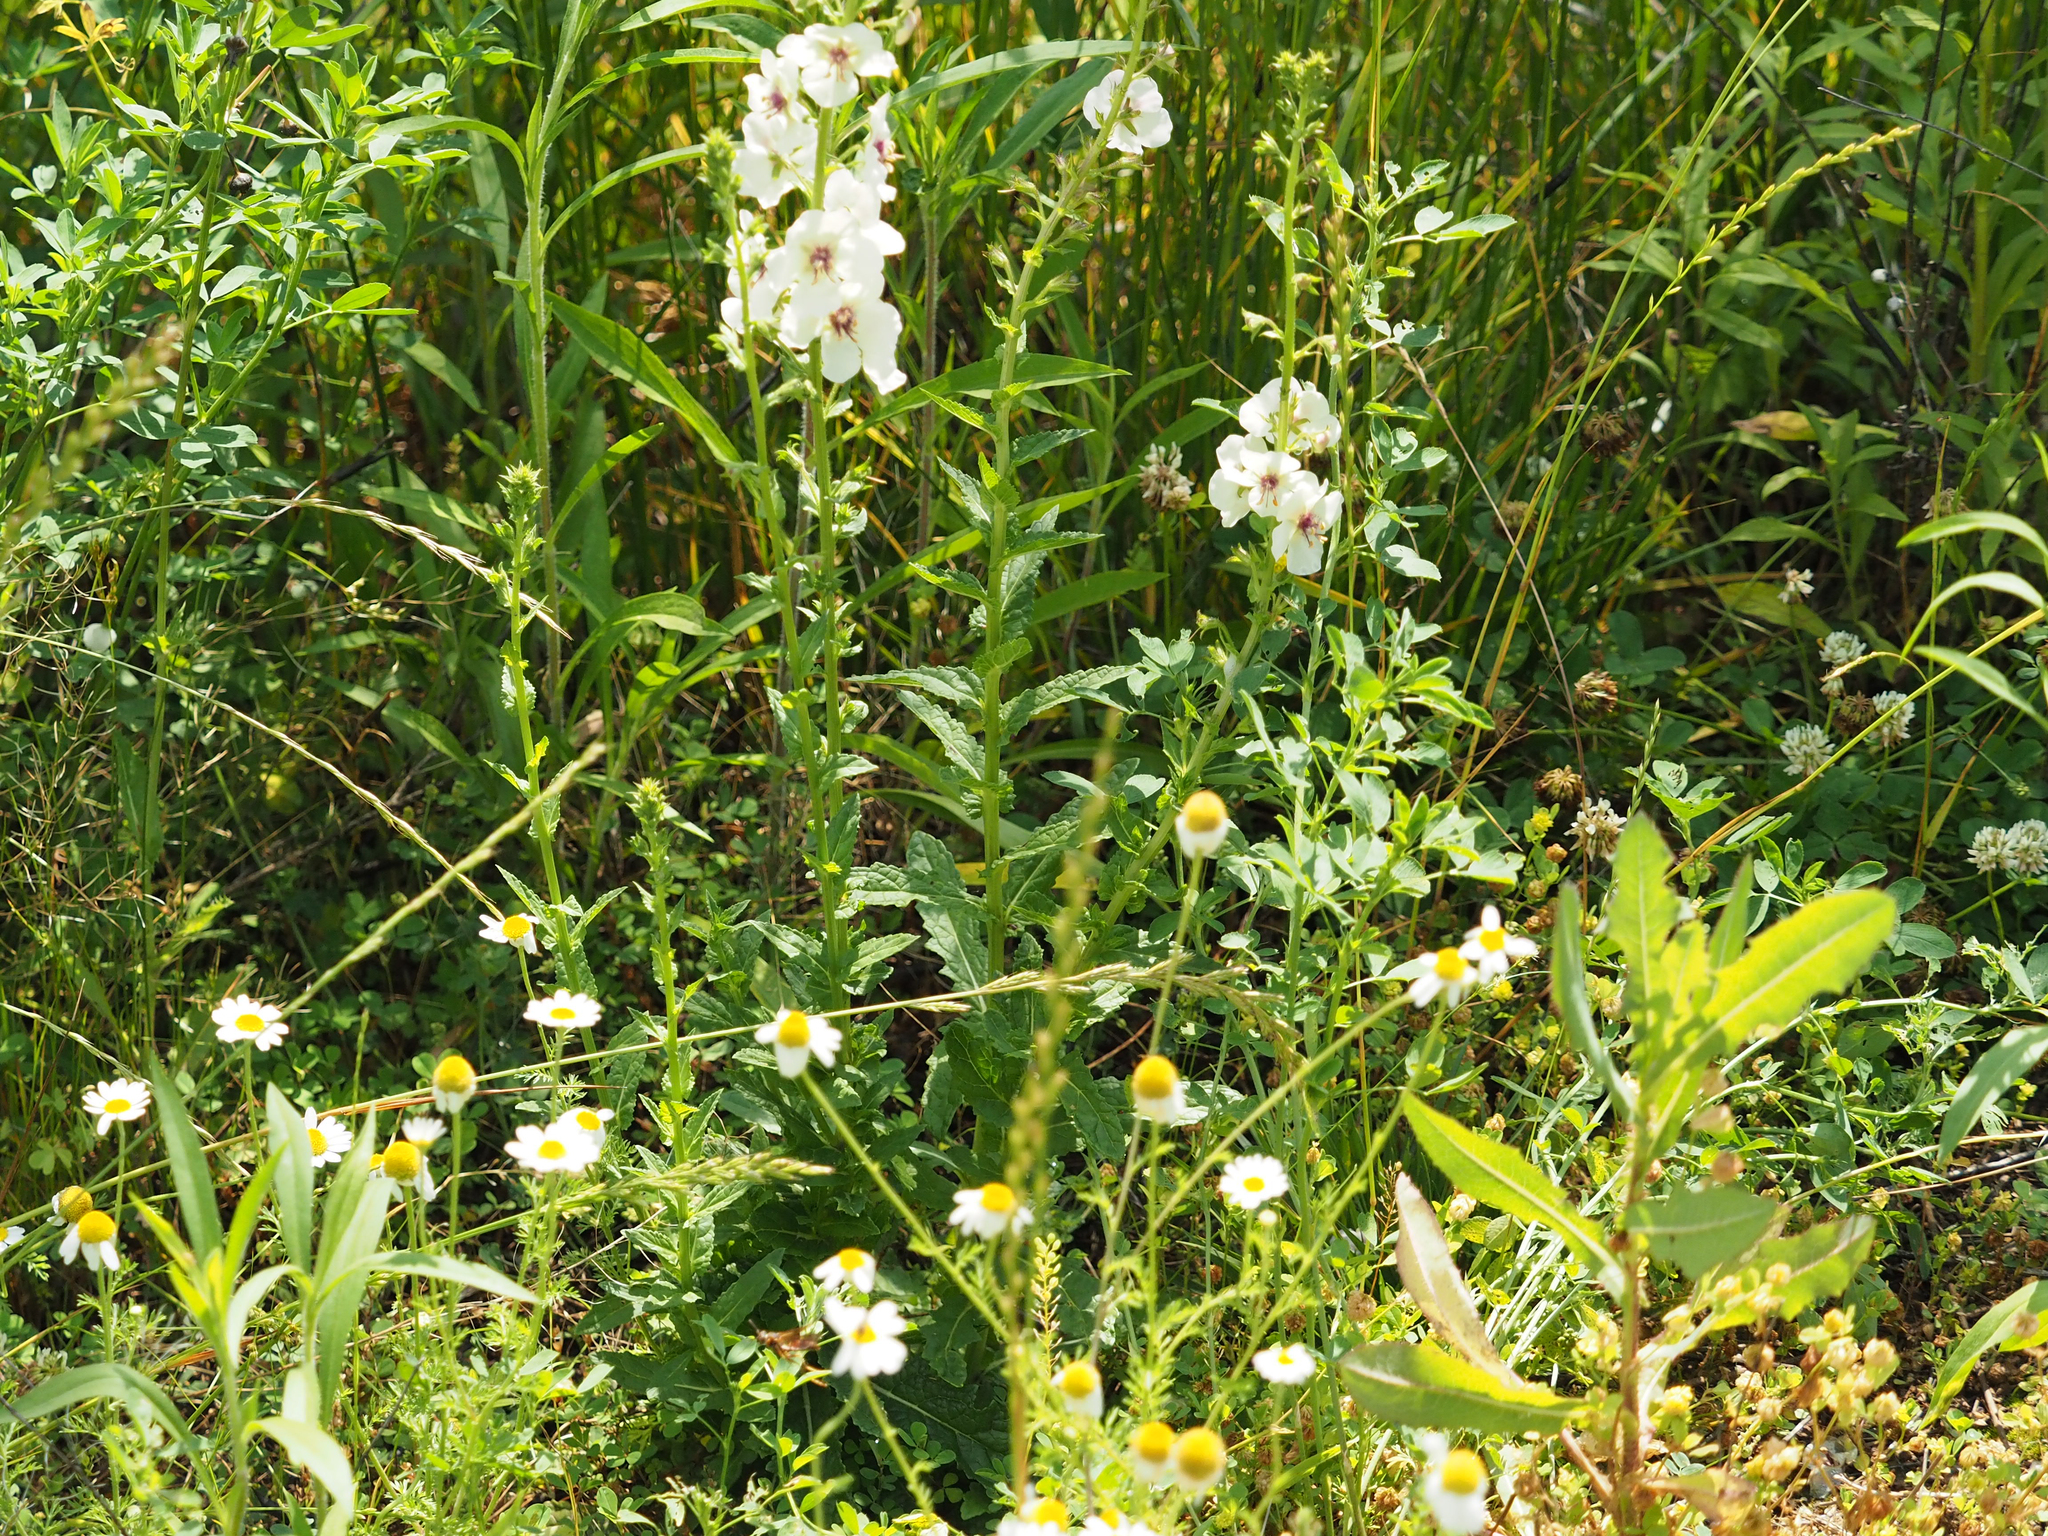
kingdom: Plantae
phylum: Tracheophyta
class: Magnoliopsida
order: Lamiales
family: Scrophulariaceae
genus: Verbascum
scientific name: Verbascum blattaria
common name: Moth mullein
